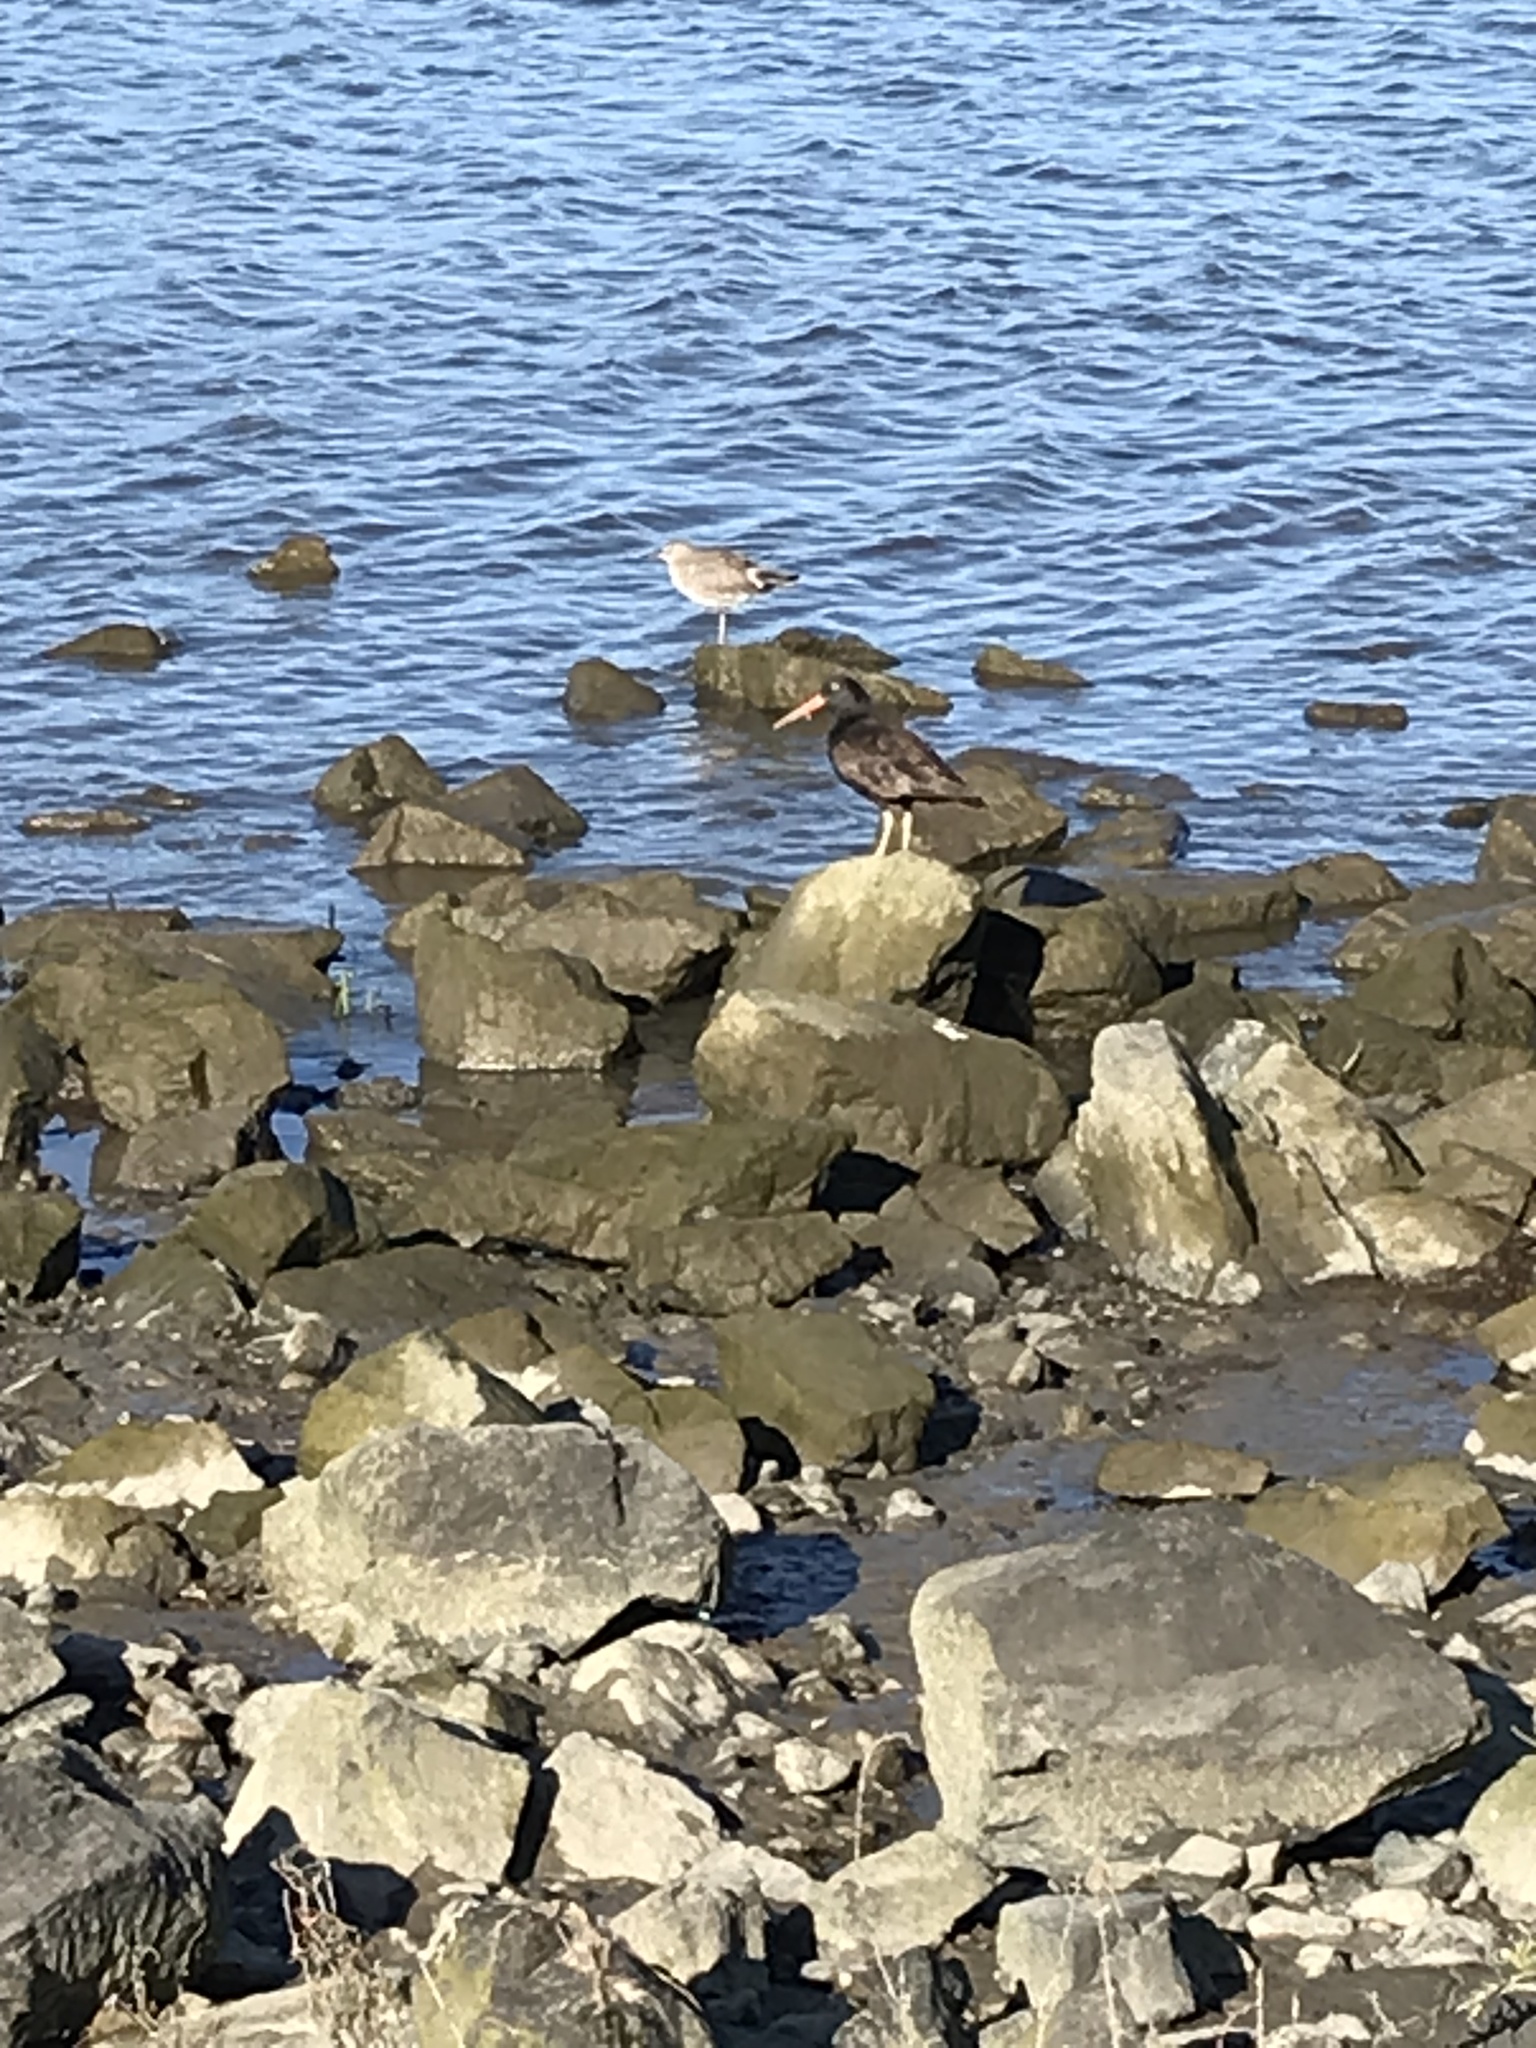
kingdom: Animalia
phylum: Chordata
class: Aves
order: Charadriiformes
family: Haematopodidae
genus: Haematopus
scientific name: Haematopus bachmani
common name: Black oystercatcher
